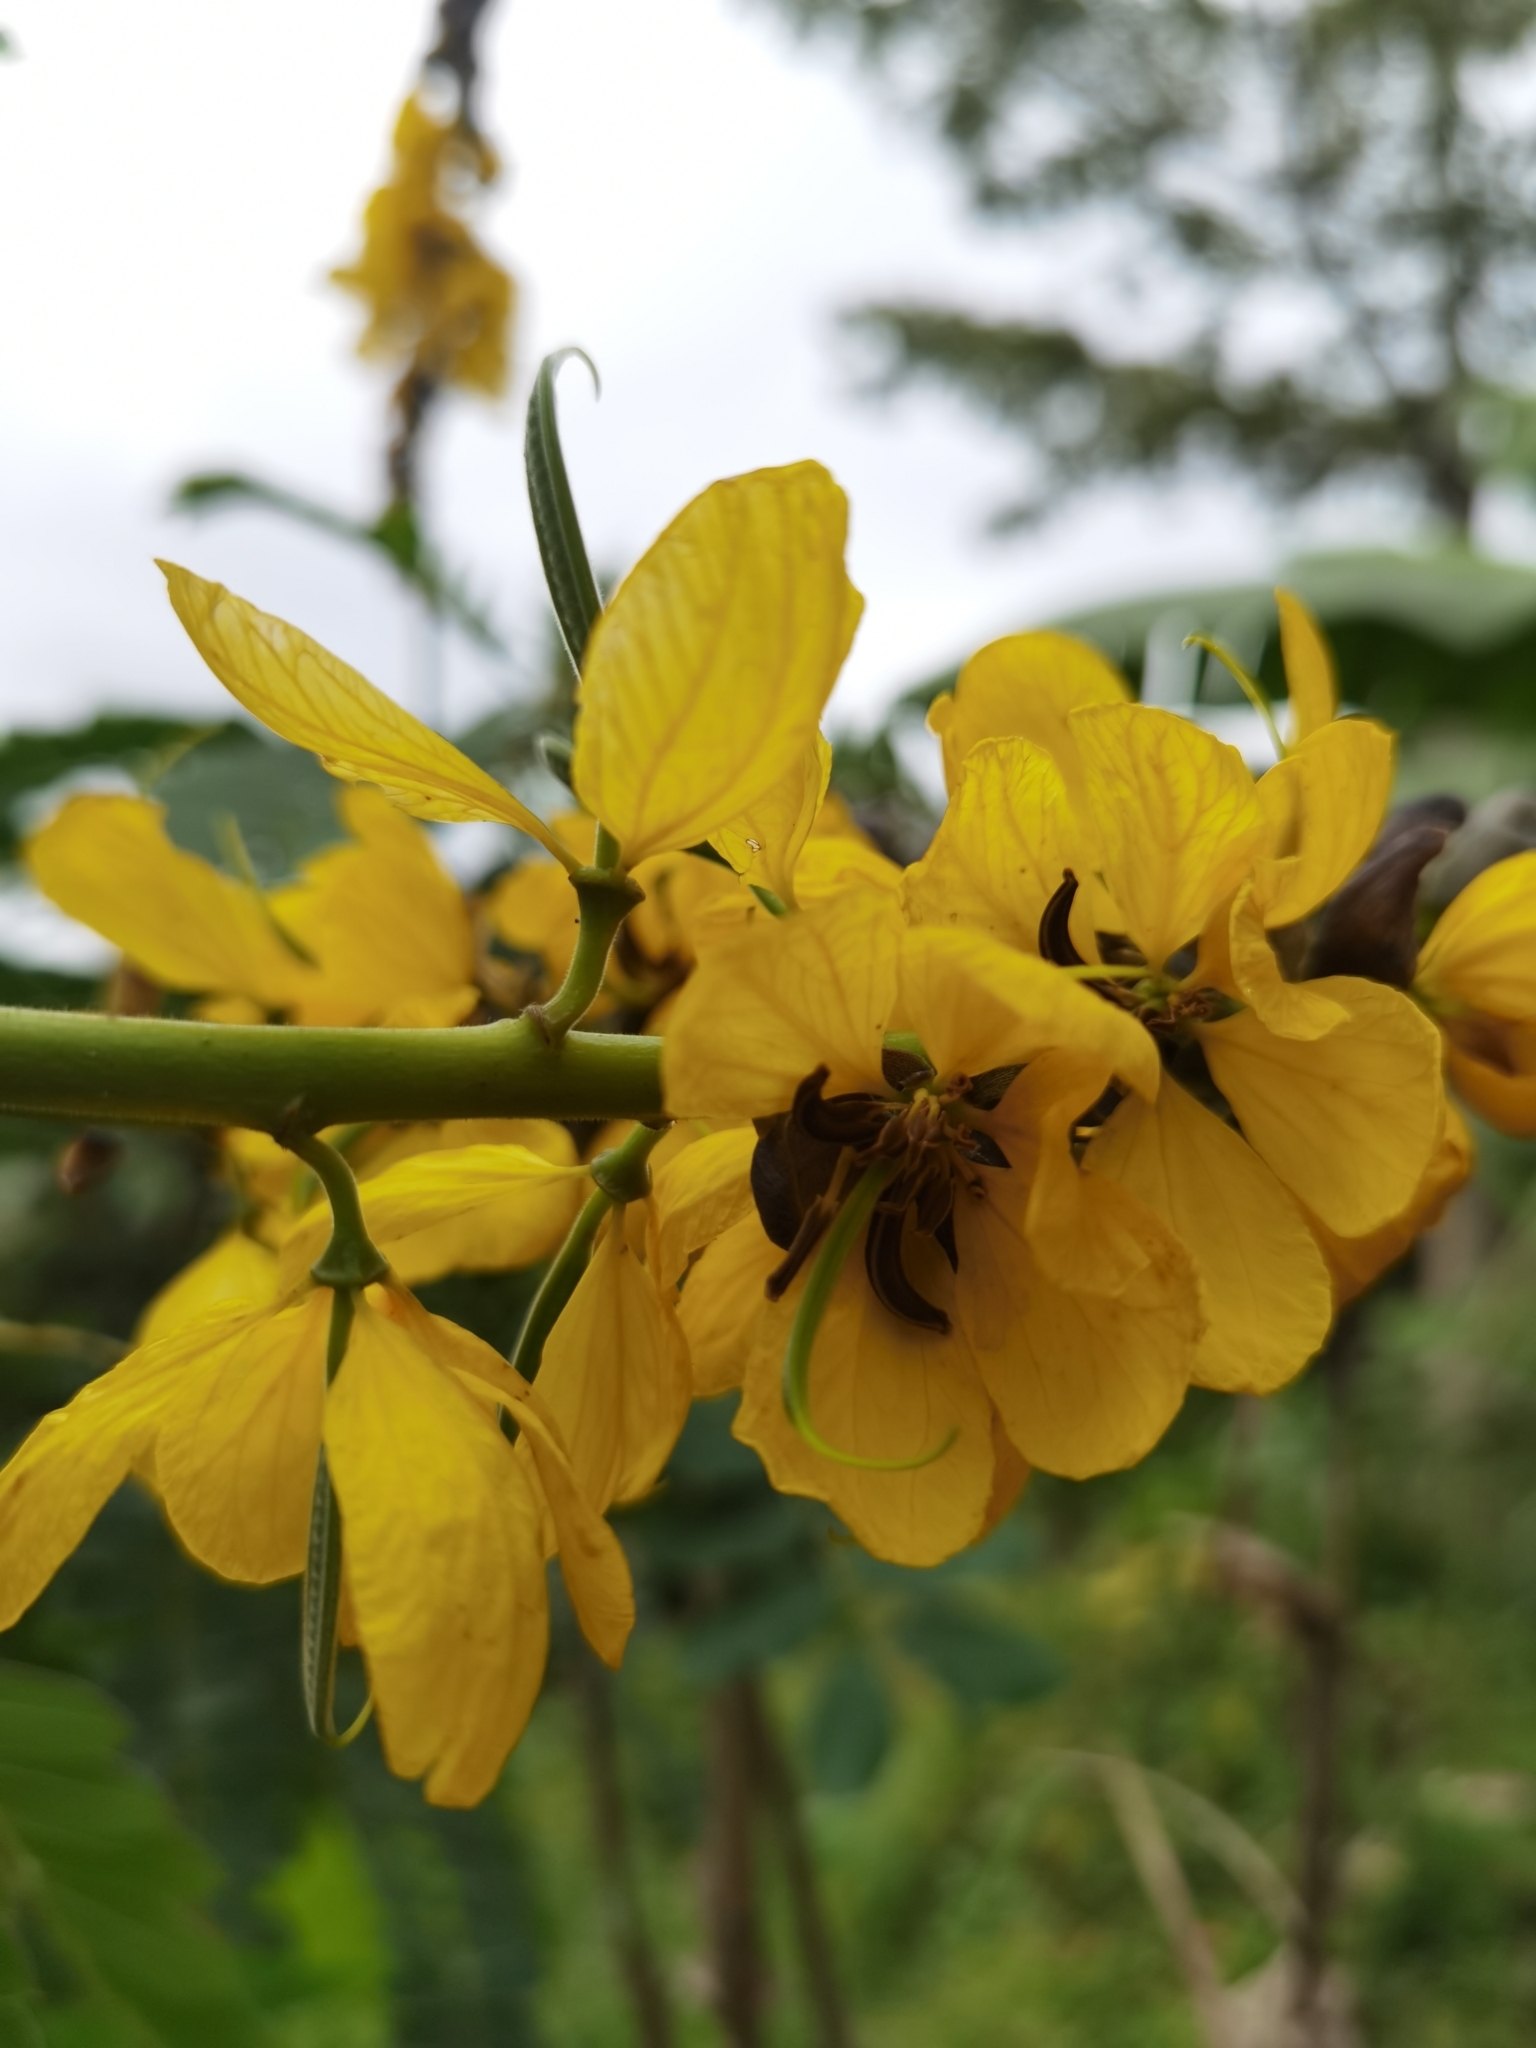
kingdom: Plantae
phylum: Tracheophyta
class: Magnoliopsida
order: Fabales
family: Fabaceae
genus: Senna
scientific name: Senna didymobotrya
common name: African senna
